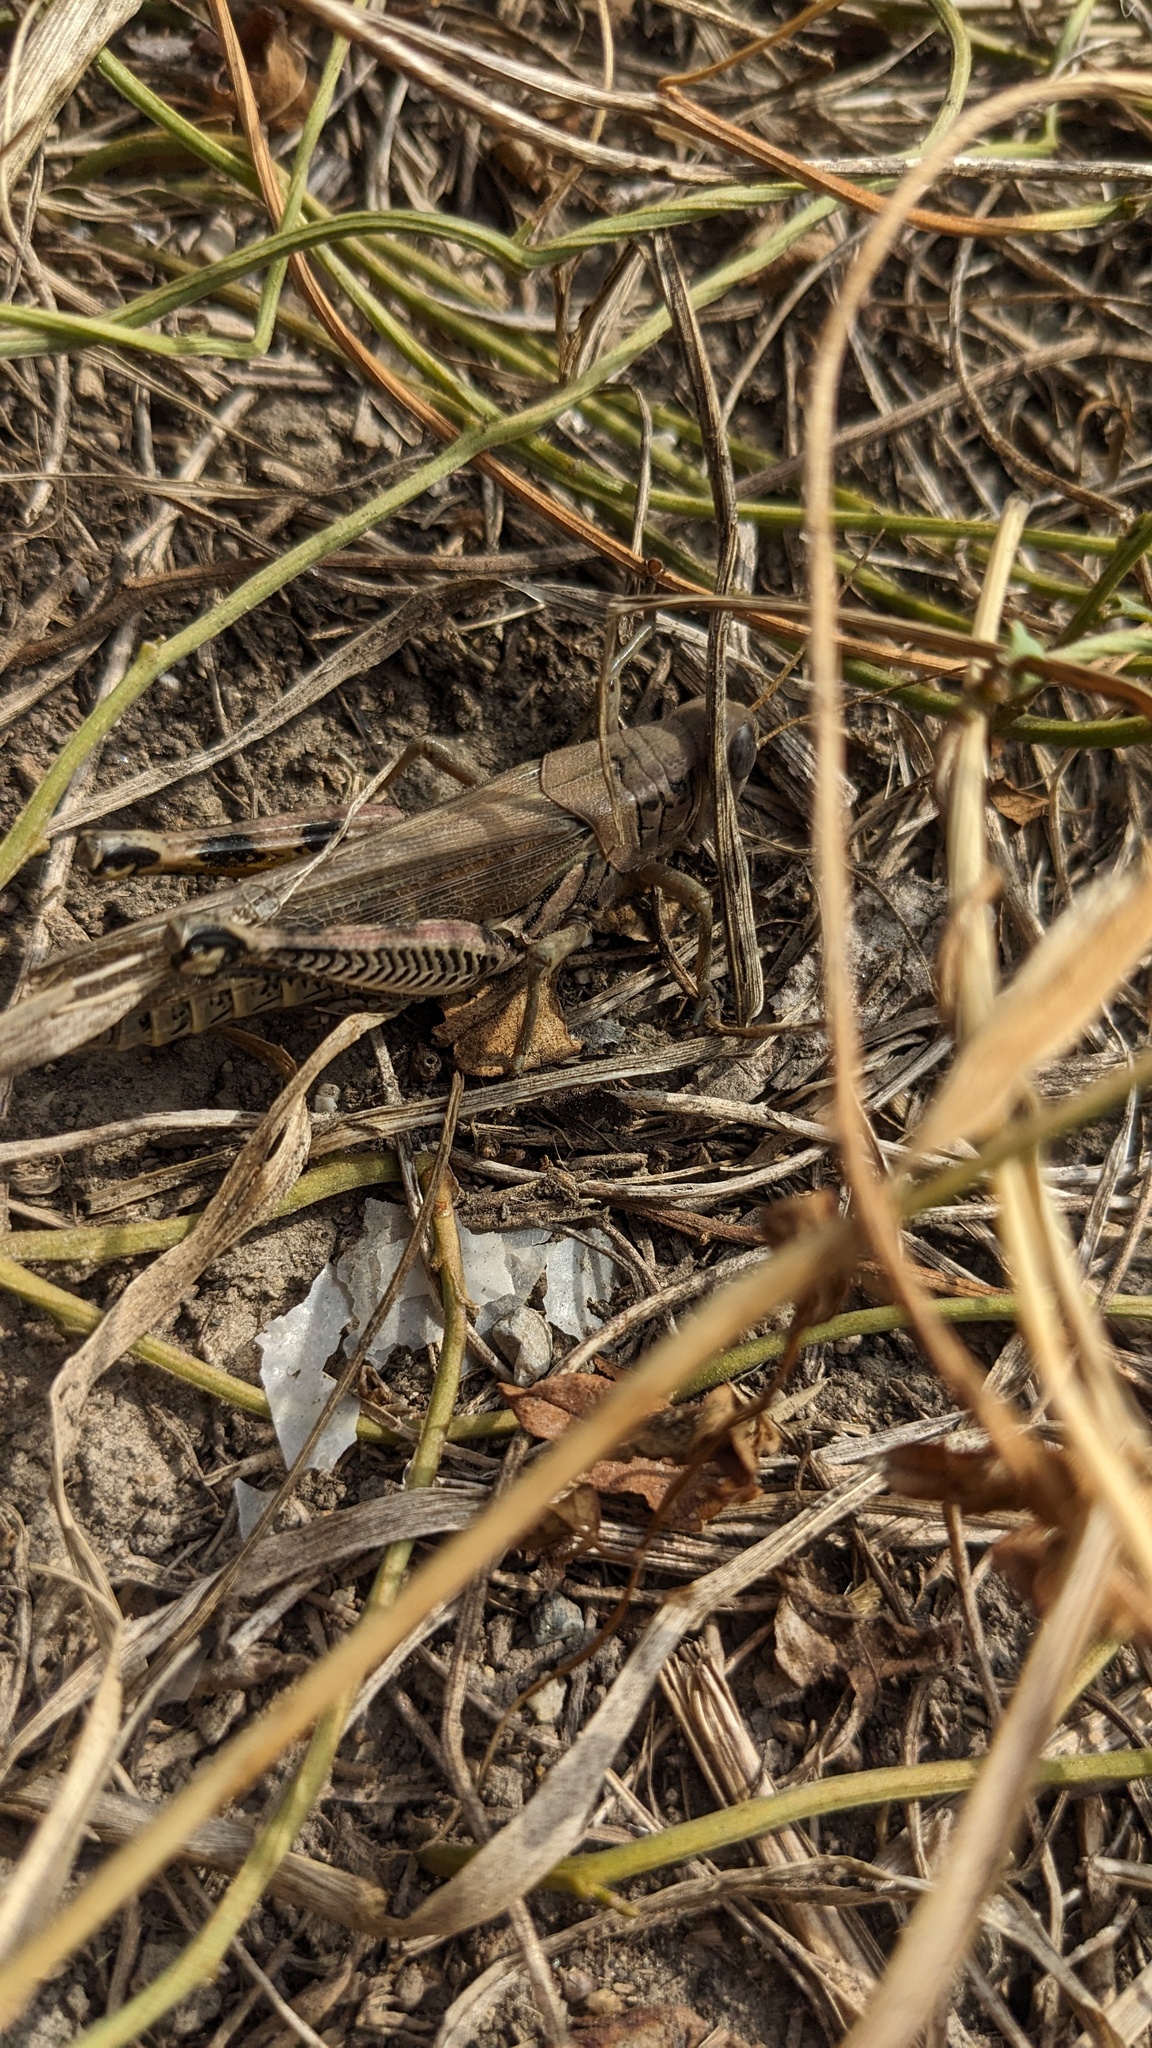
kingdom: Animalia
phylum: Arthropoda
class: Insecta
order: Orthoptera
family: Acrididae
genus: Melanoplus
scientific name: Melanoplus differentialis
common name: Differential grasshopper
